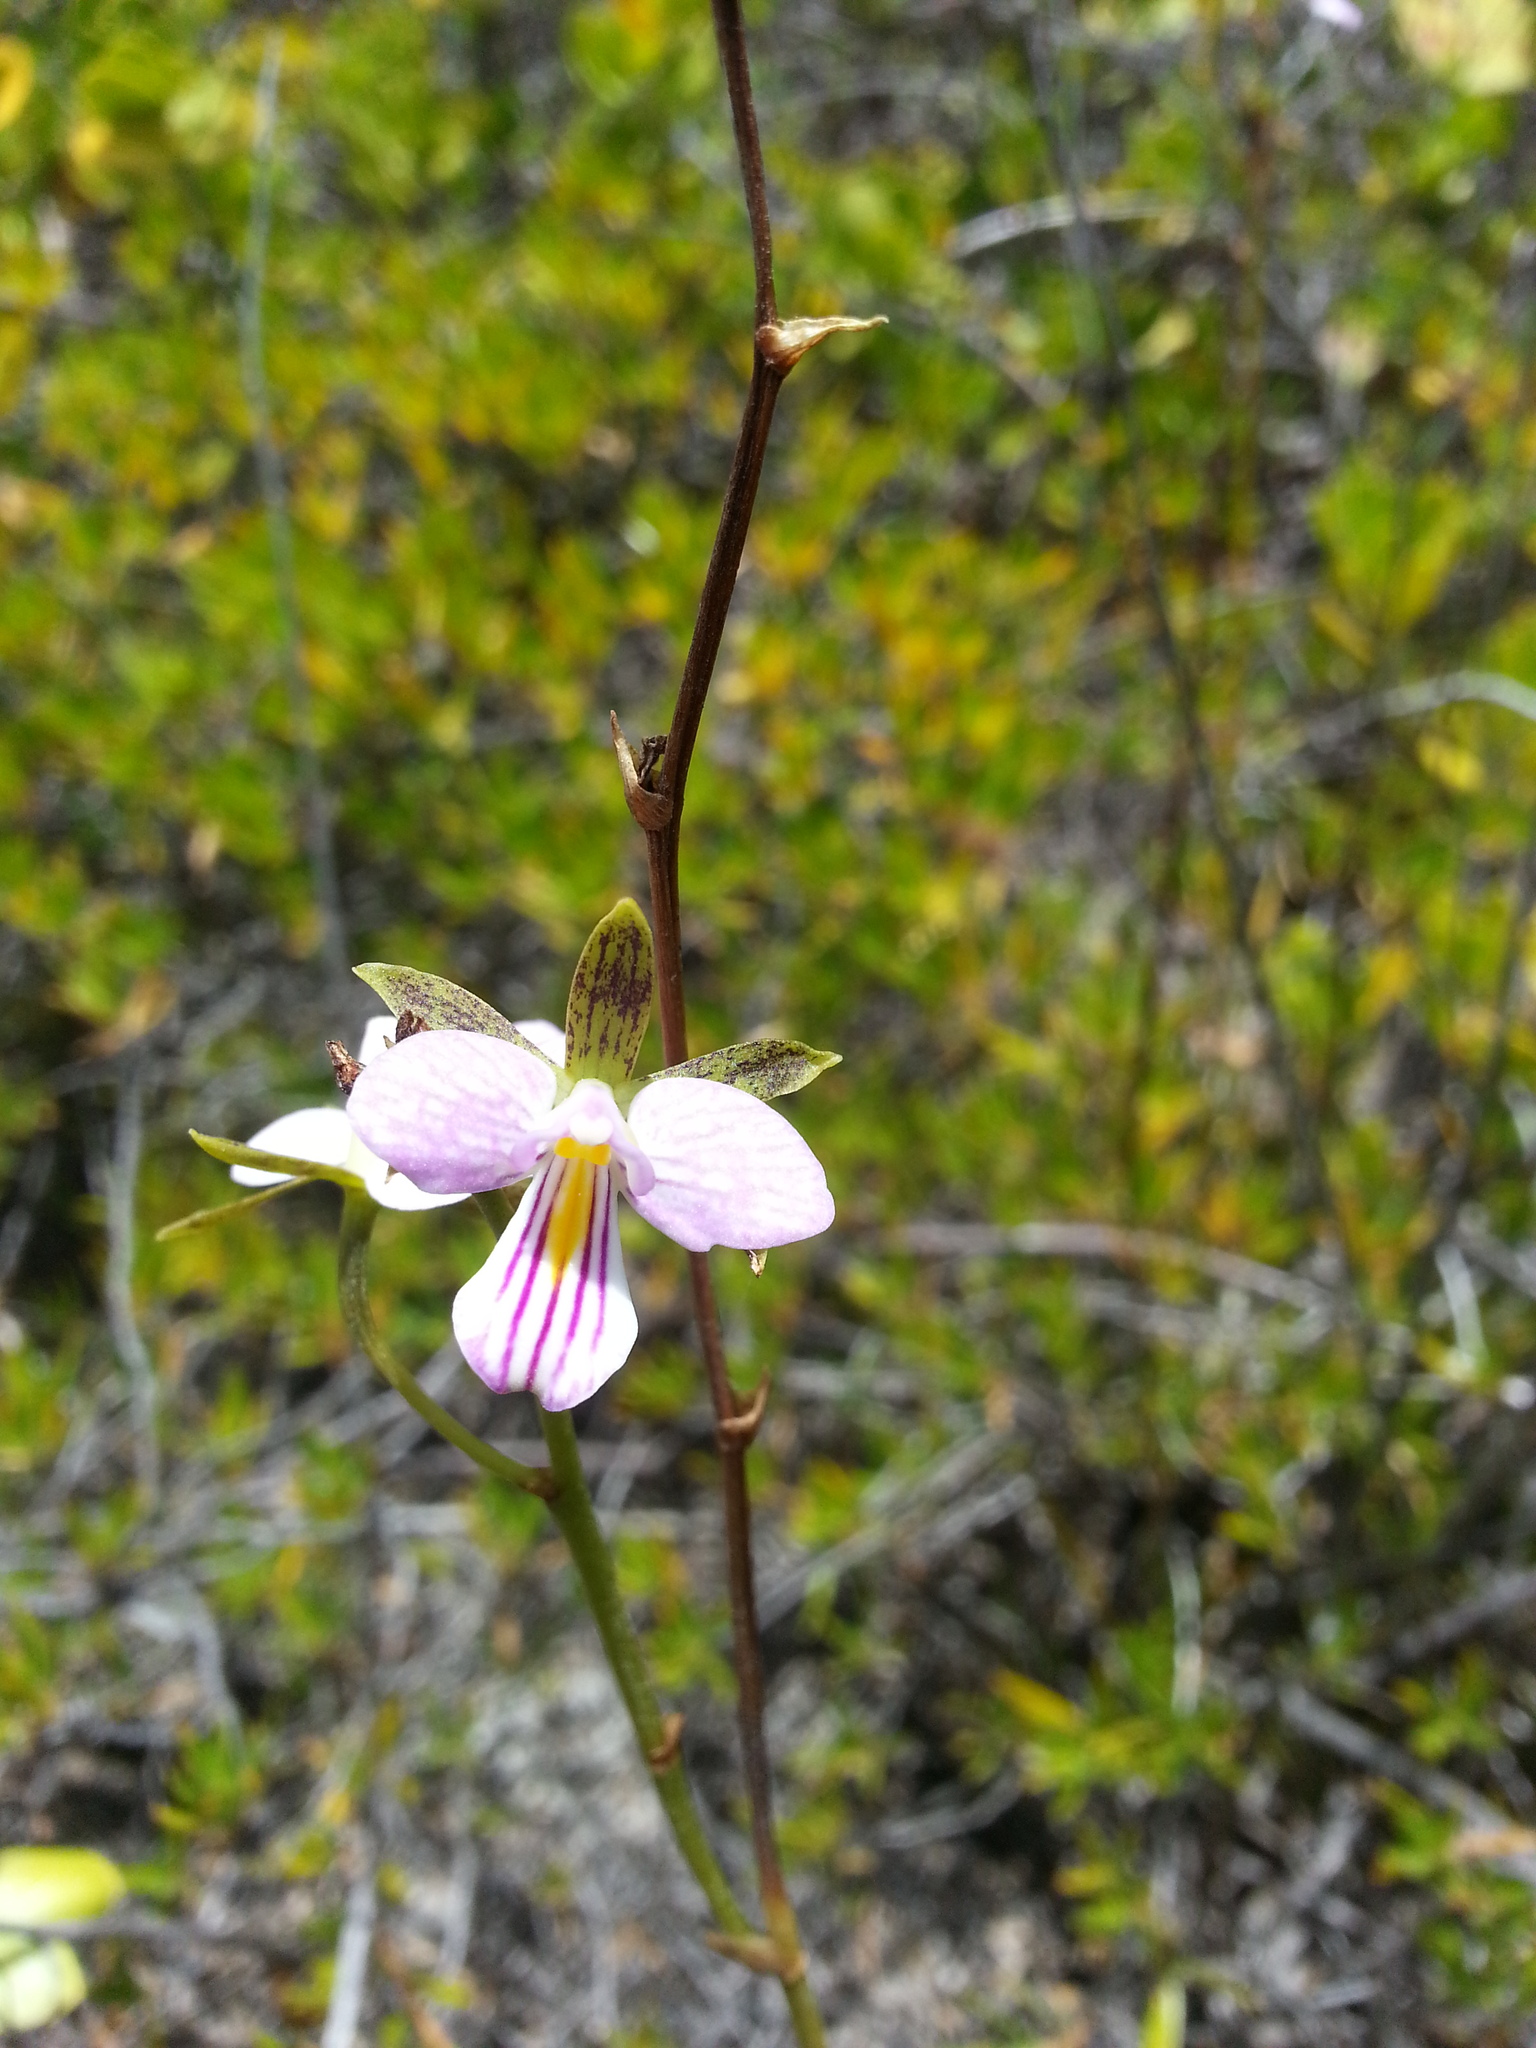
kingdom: Plantae
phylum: Tracheophyta
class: Liliopsida
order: Asparagales
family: Orchidaceae
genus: Tetramicra
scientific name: Tetramicra canaliculata
